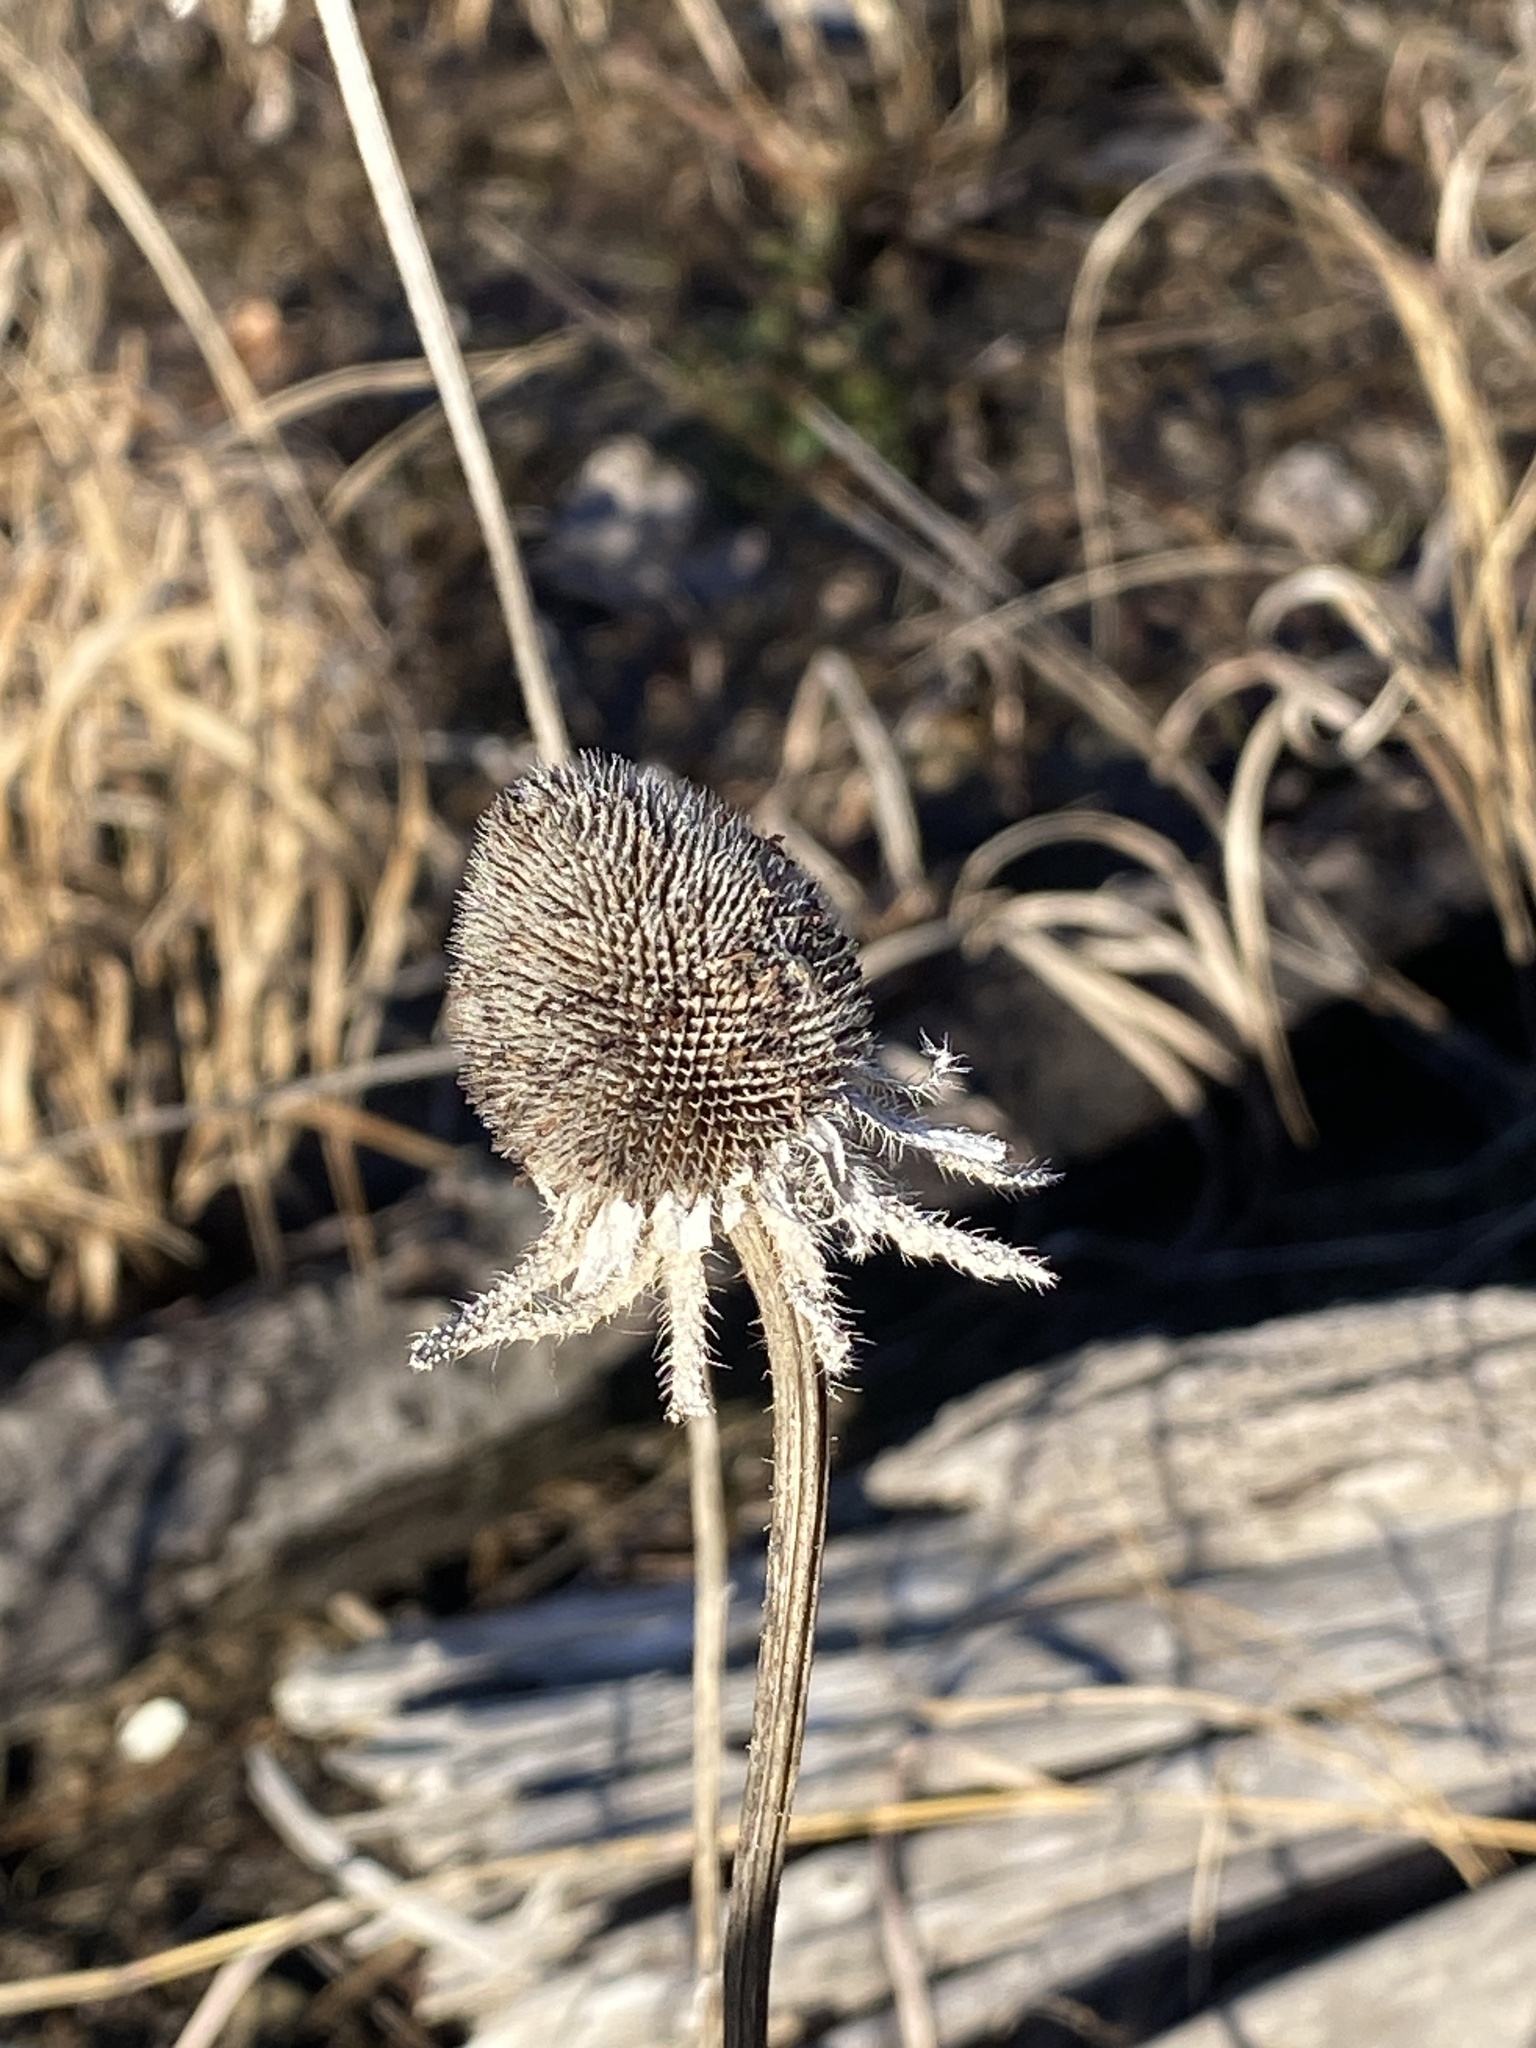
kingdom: Plantae
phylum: Tracheophyta
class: Magnoliopsida
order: Asterales
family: Asteraceae
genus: Rudbeckia
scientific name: Rudbeckia hirta
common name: Black-eyed-susan
